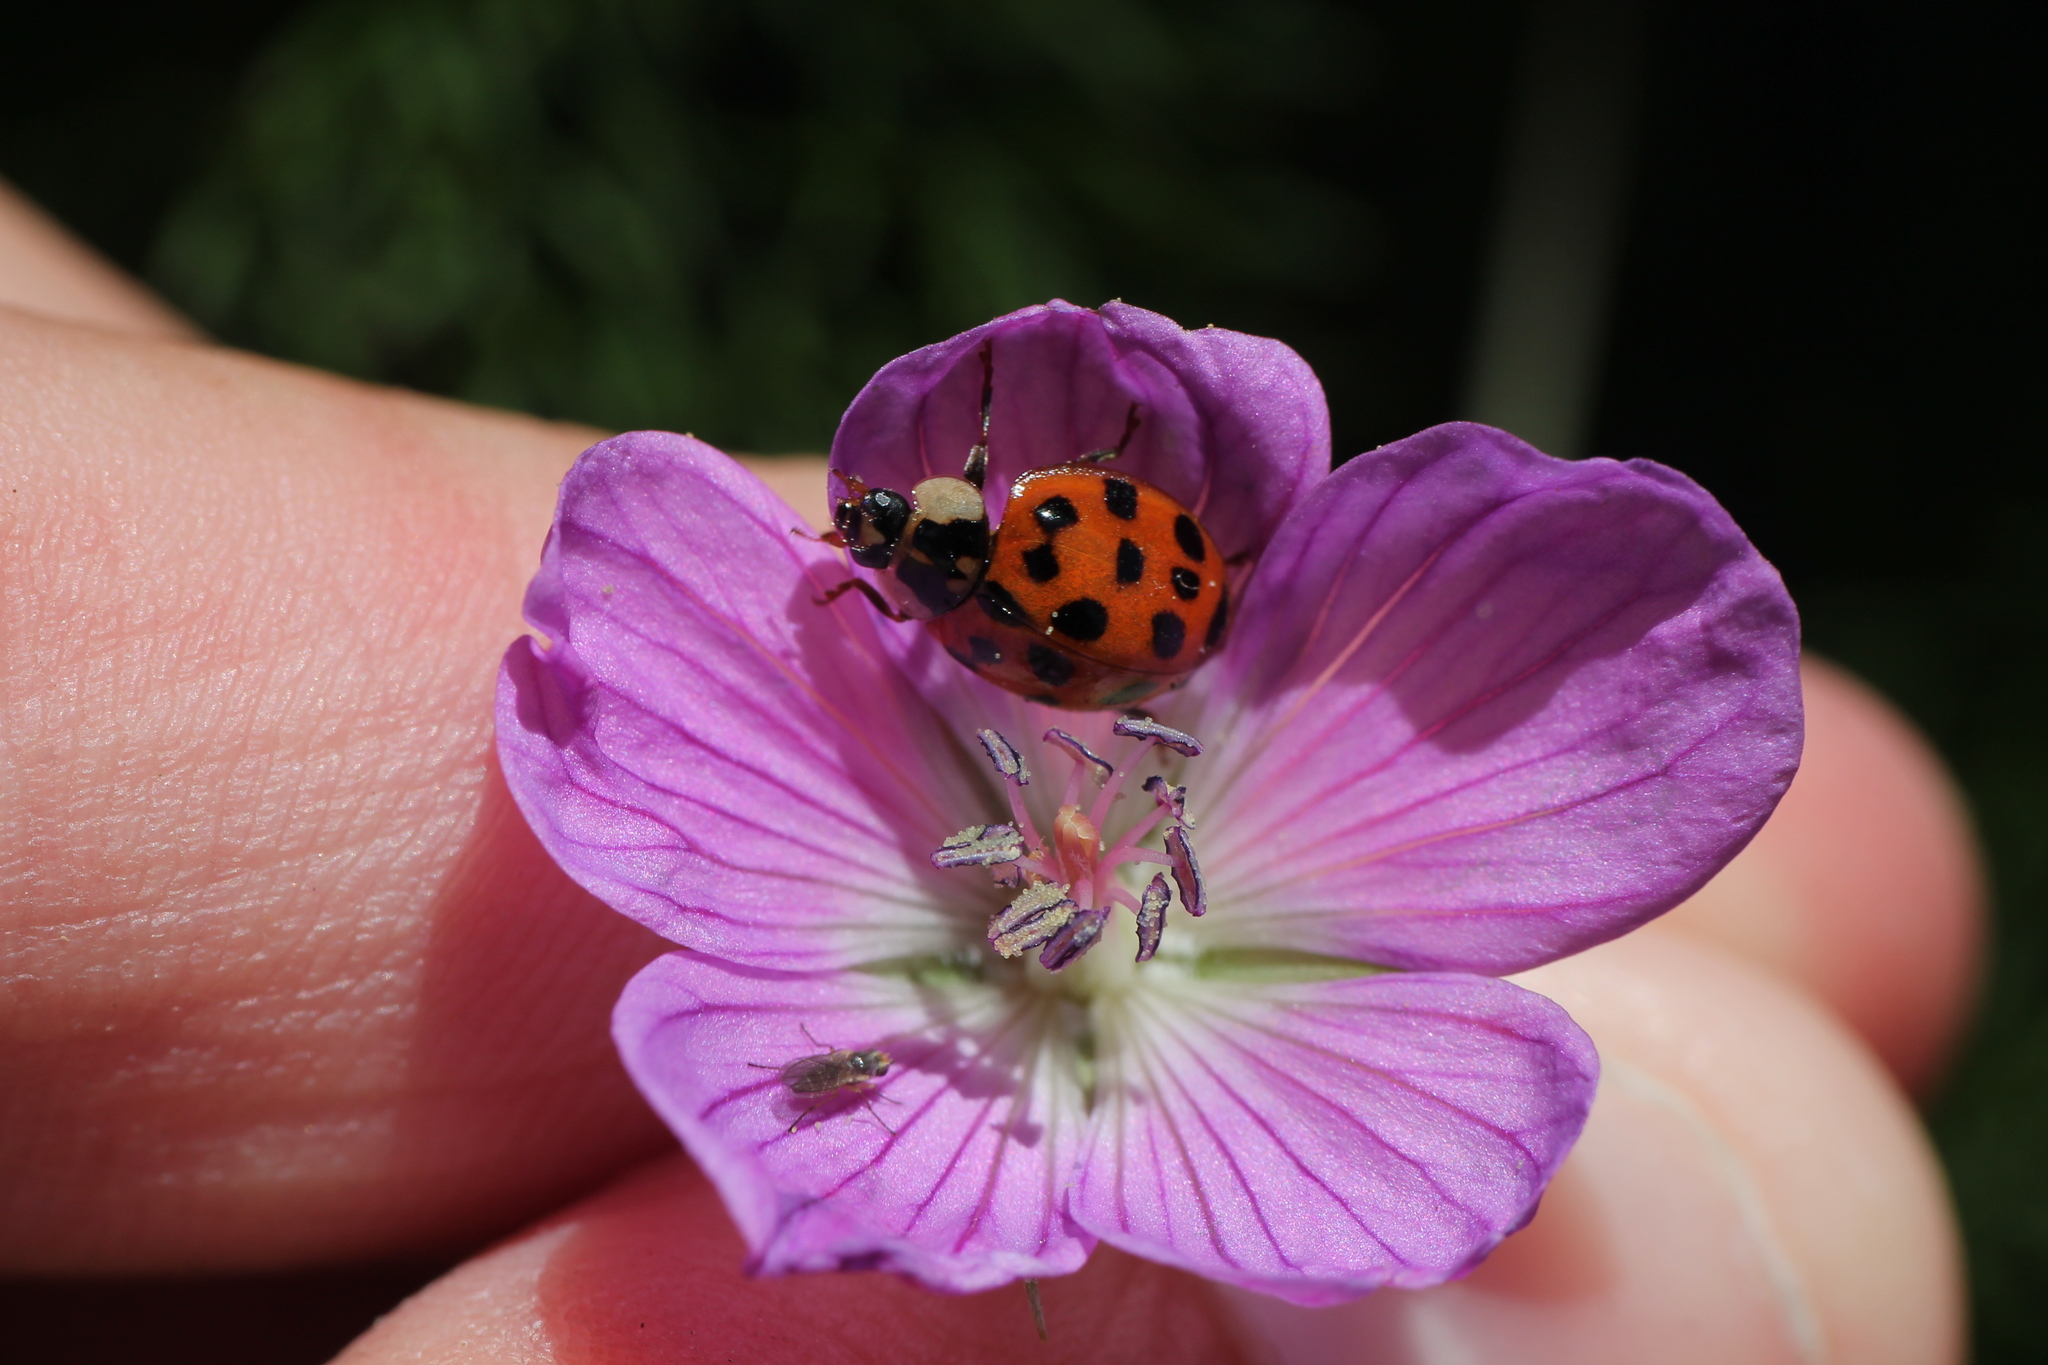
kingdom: Animalia
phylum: Arthropoda
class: Insecta
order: Coleoptera
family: Coccinellidae
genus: Harmonia
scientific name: Harmonia axyridis
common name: Harlequin ladybird
